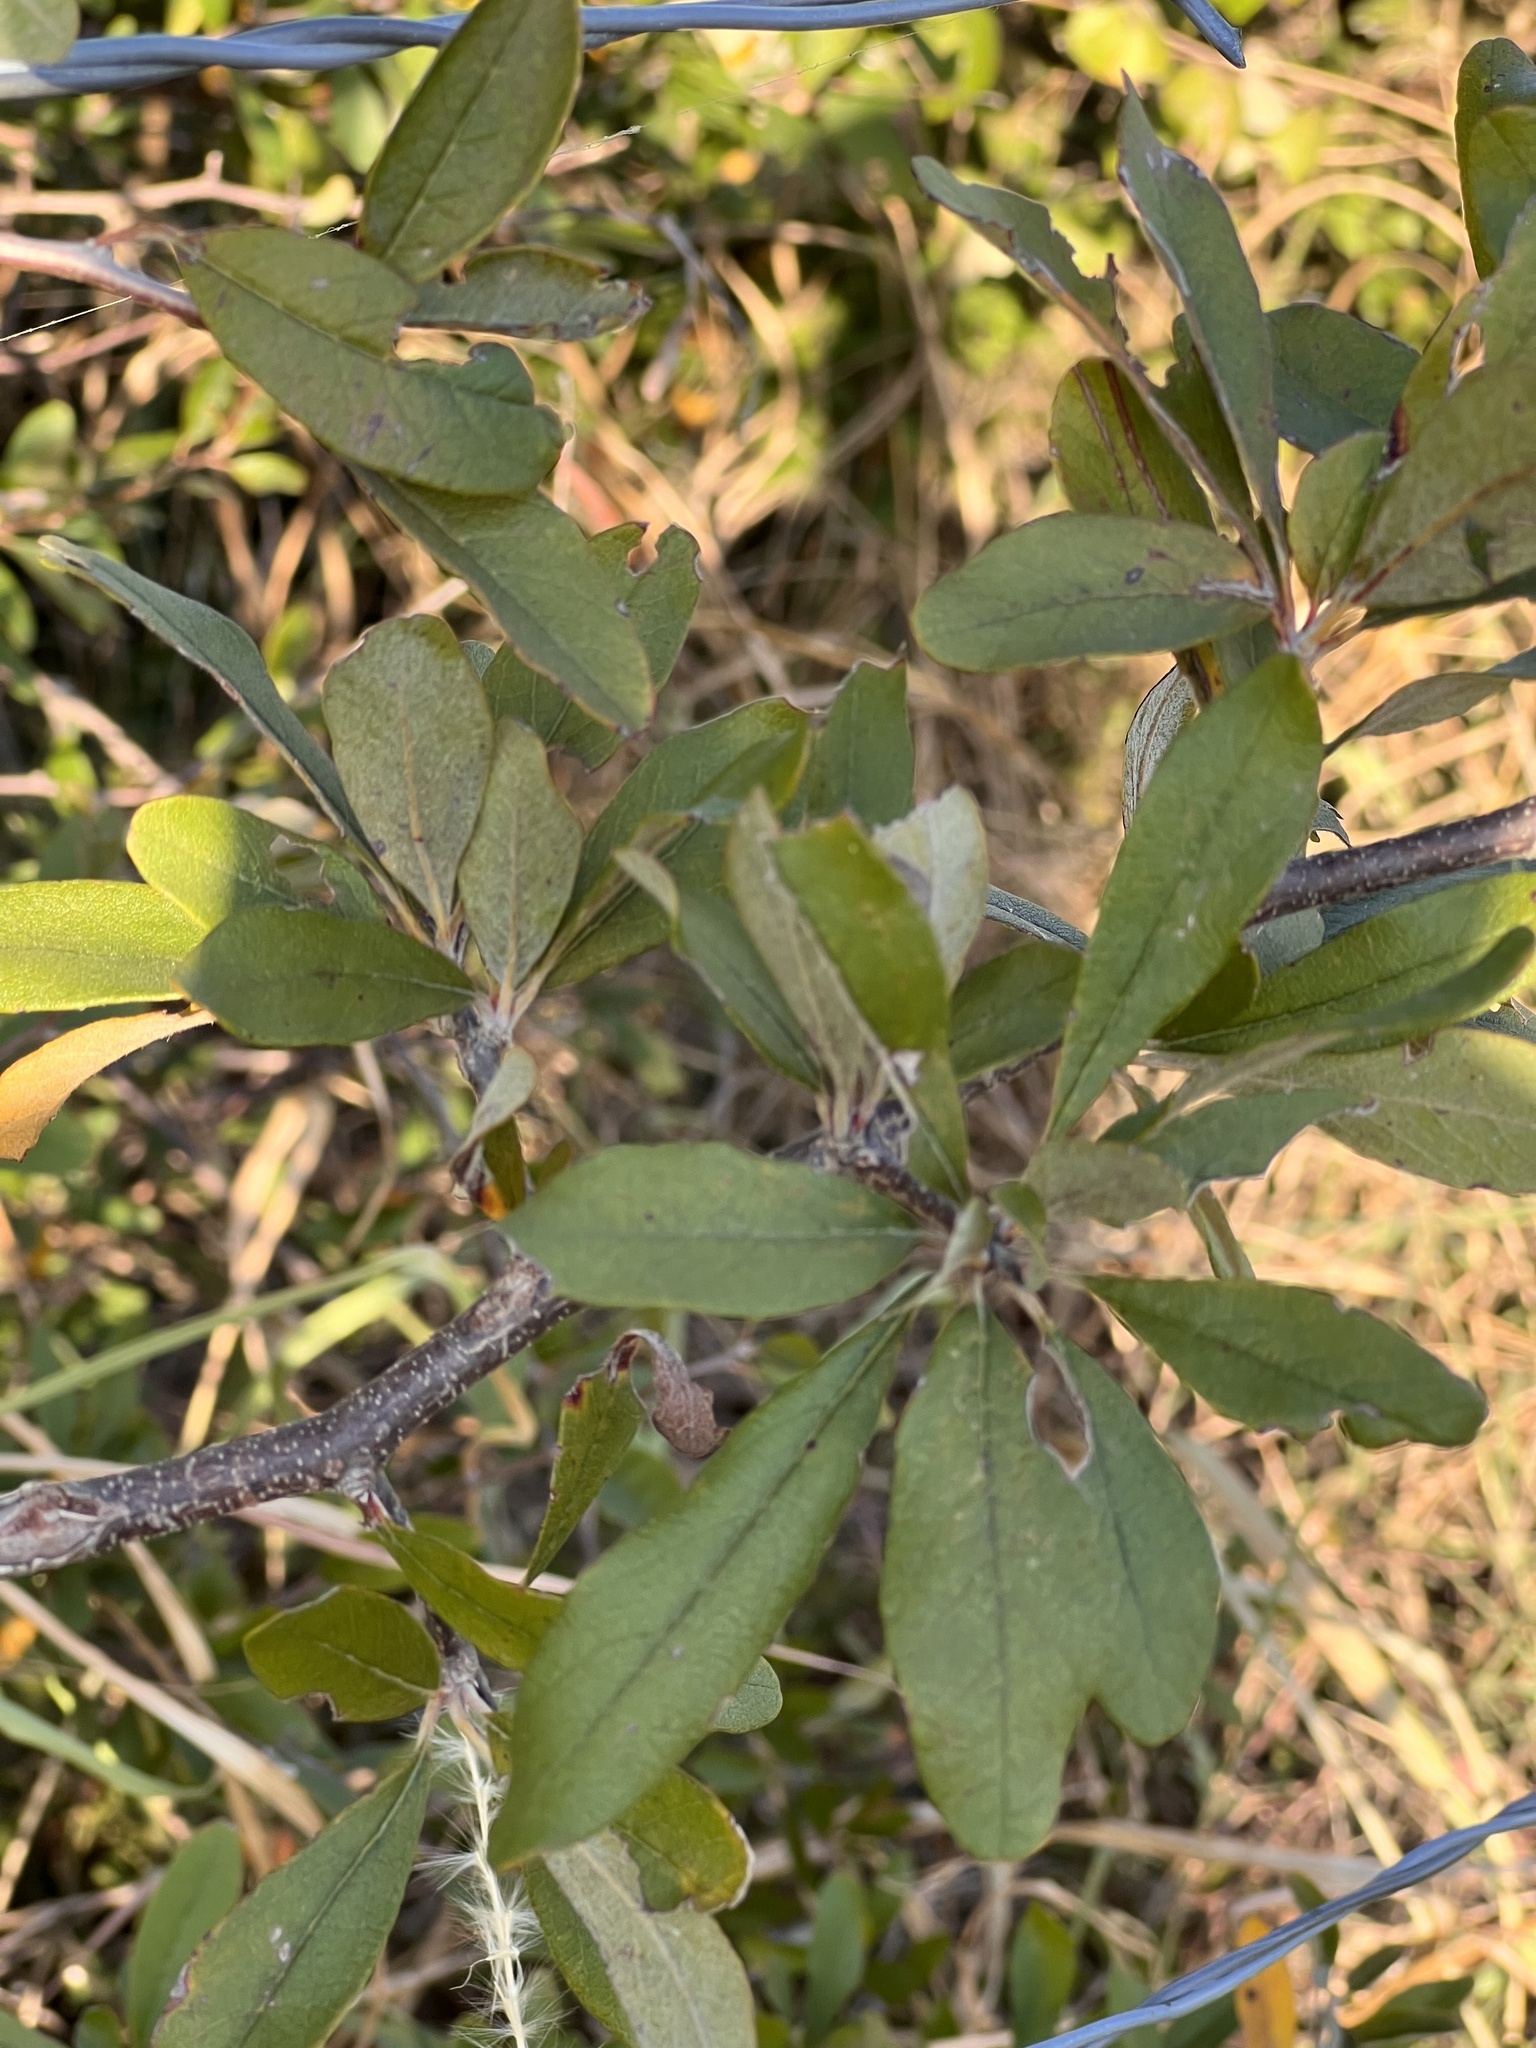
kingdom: Plantae
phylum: Tracheophyta
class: Magnoliopsida
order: Ericales
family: Sapotaceae
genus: Sideroxylon
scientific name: Sideroxylon lanuginosum
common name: Chittamwood
